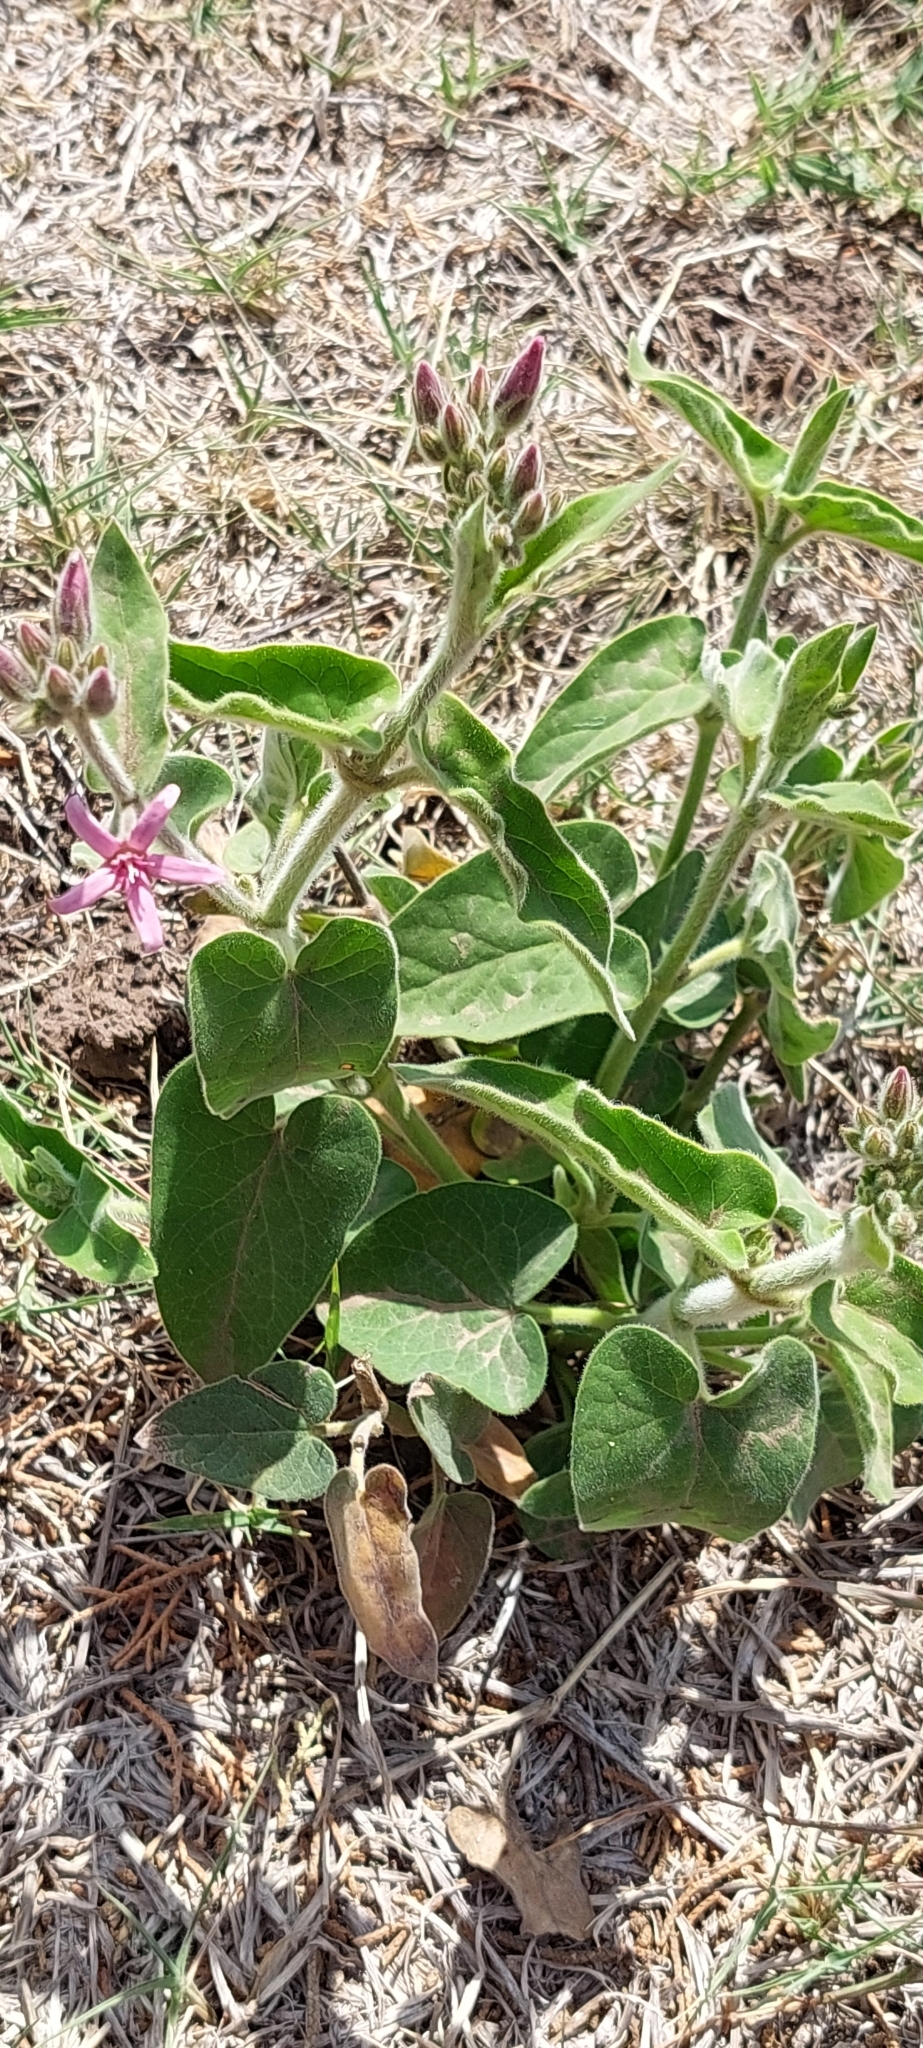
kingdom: Plantae
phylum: Tracheophyta
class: Magnoliopsida
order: Gentianales
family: Apocynaceae
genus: Oxypetalum
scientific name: Oxypetalum solanoides
